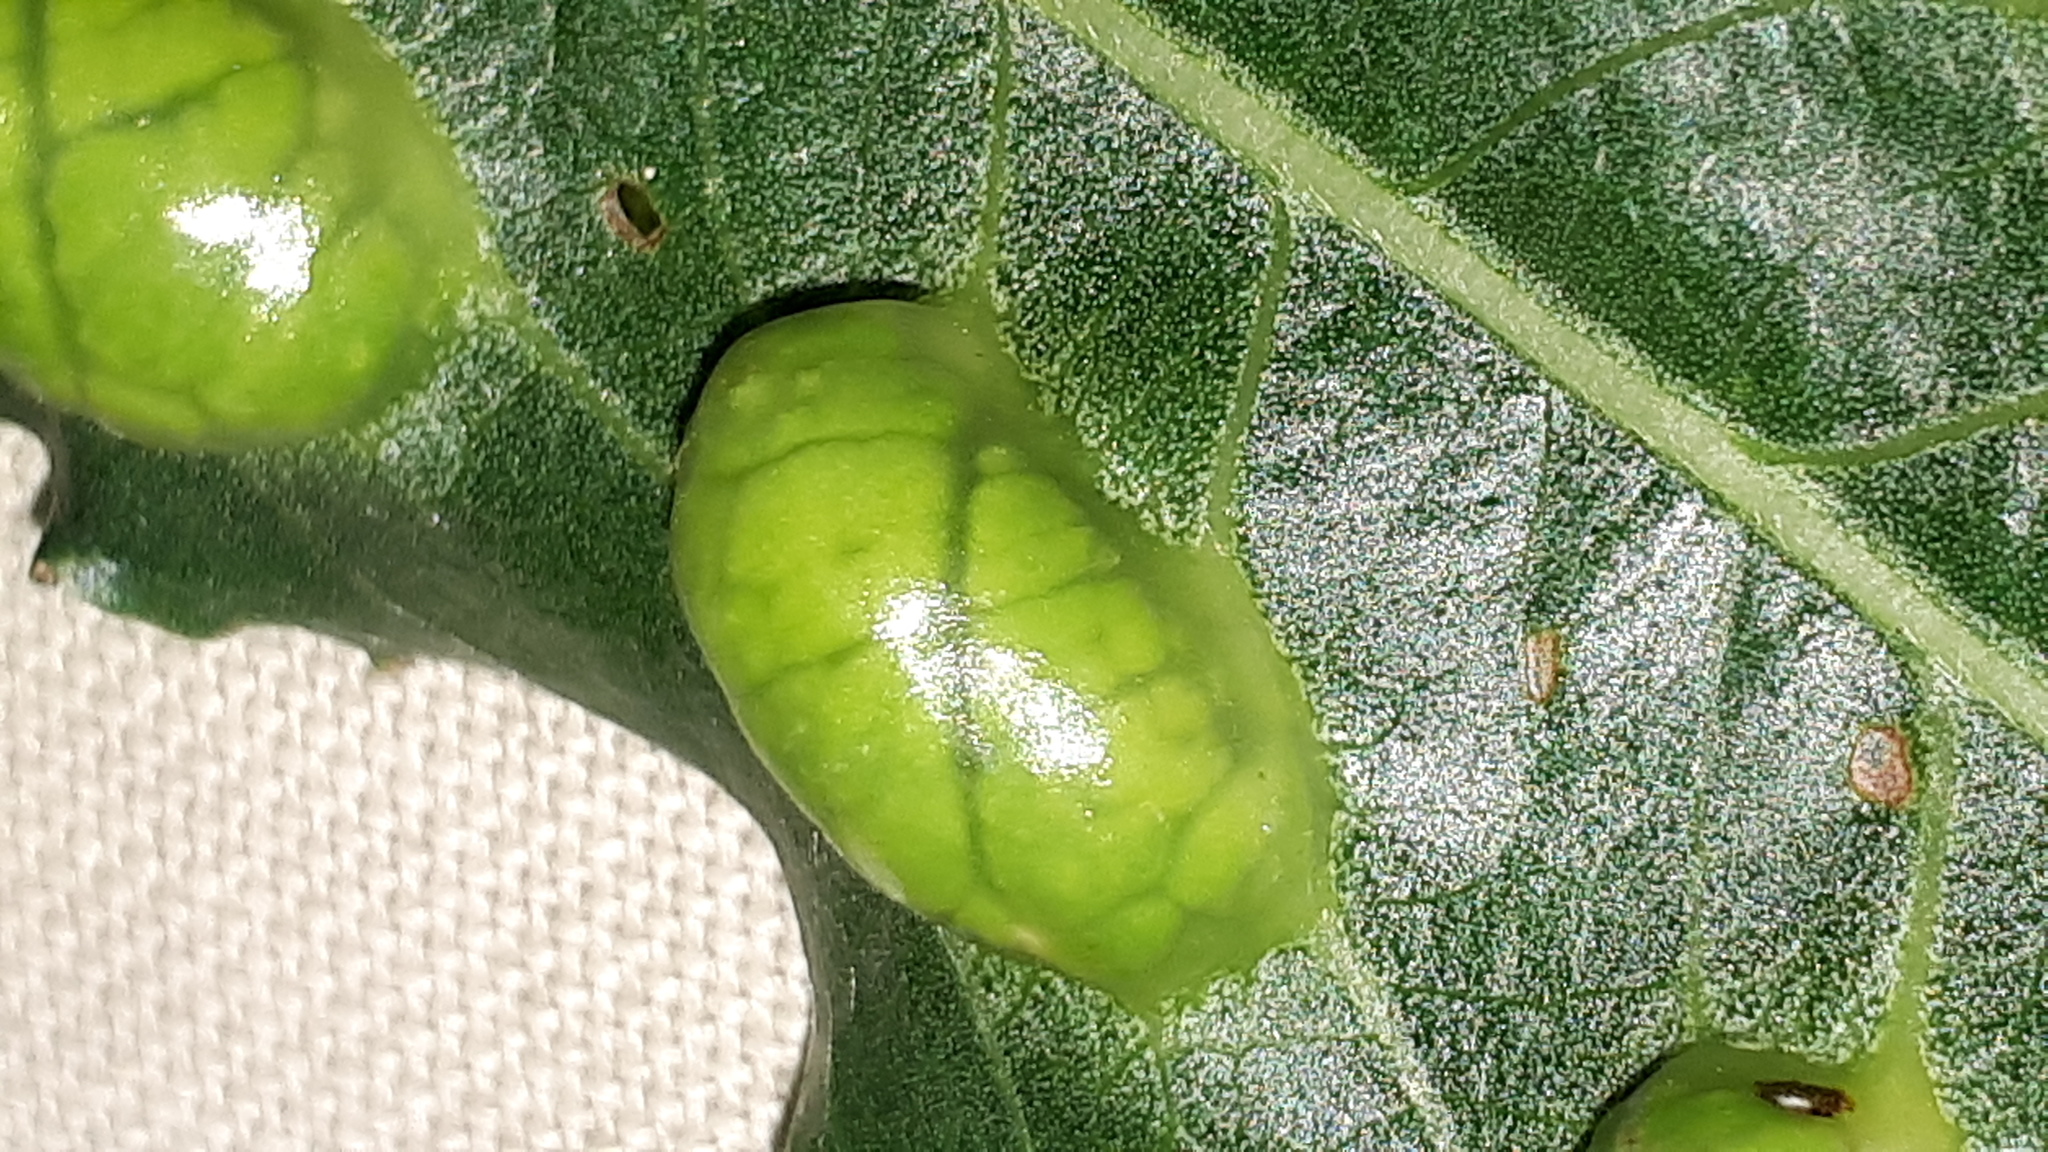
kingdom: Animalia
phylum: Arthropoda
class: Insecta
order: Hymenoptera
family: Tenthredinidae
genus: Pontania
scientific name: Pontania proxima
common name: Common sawfly
